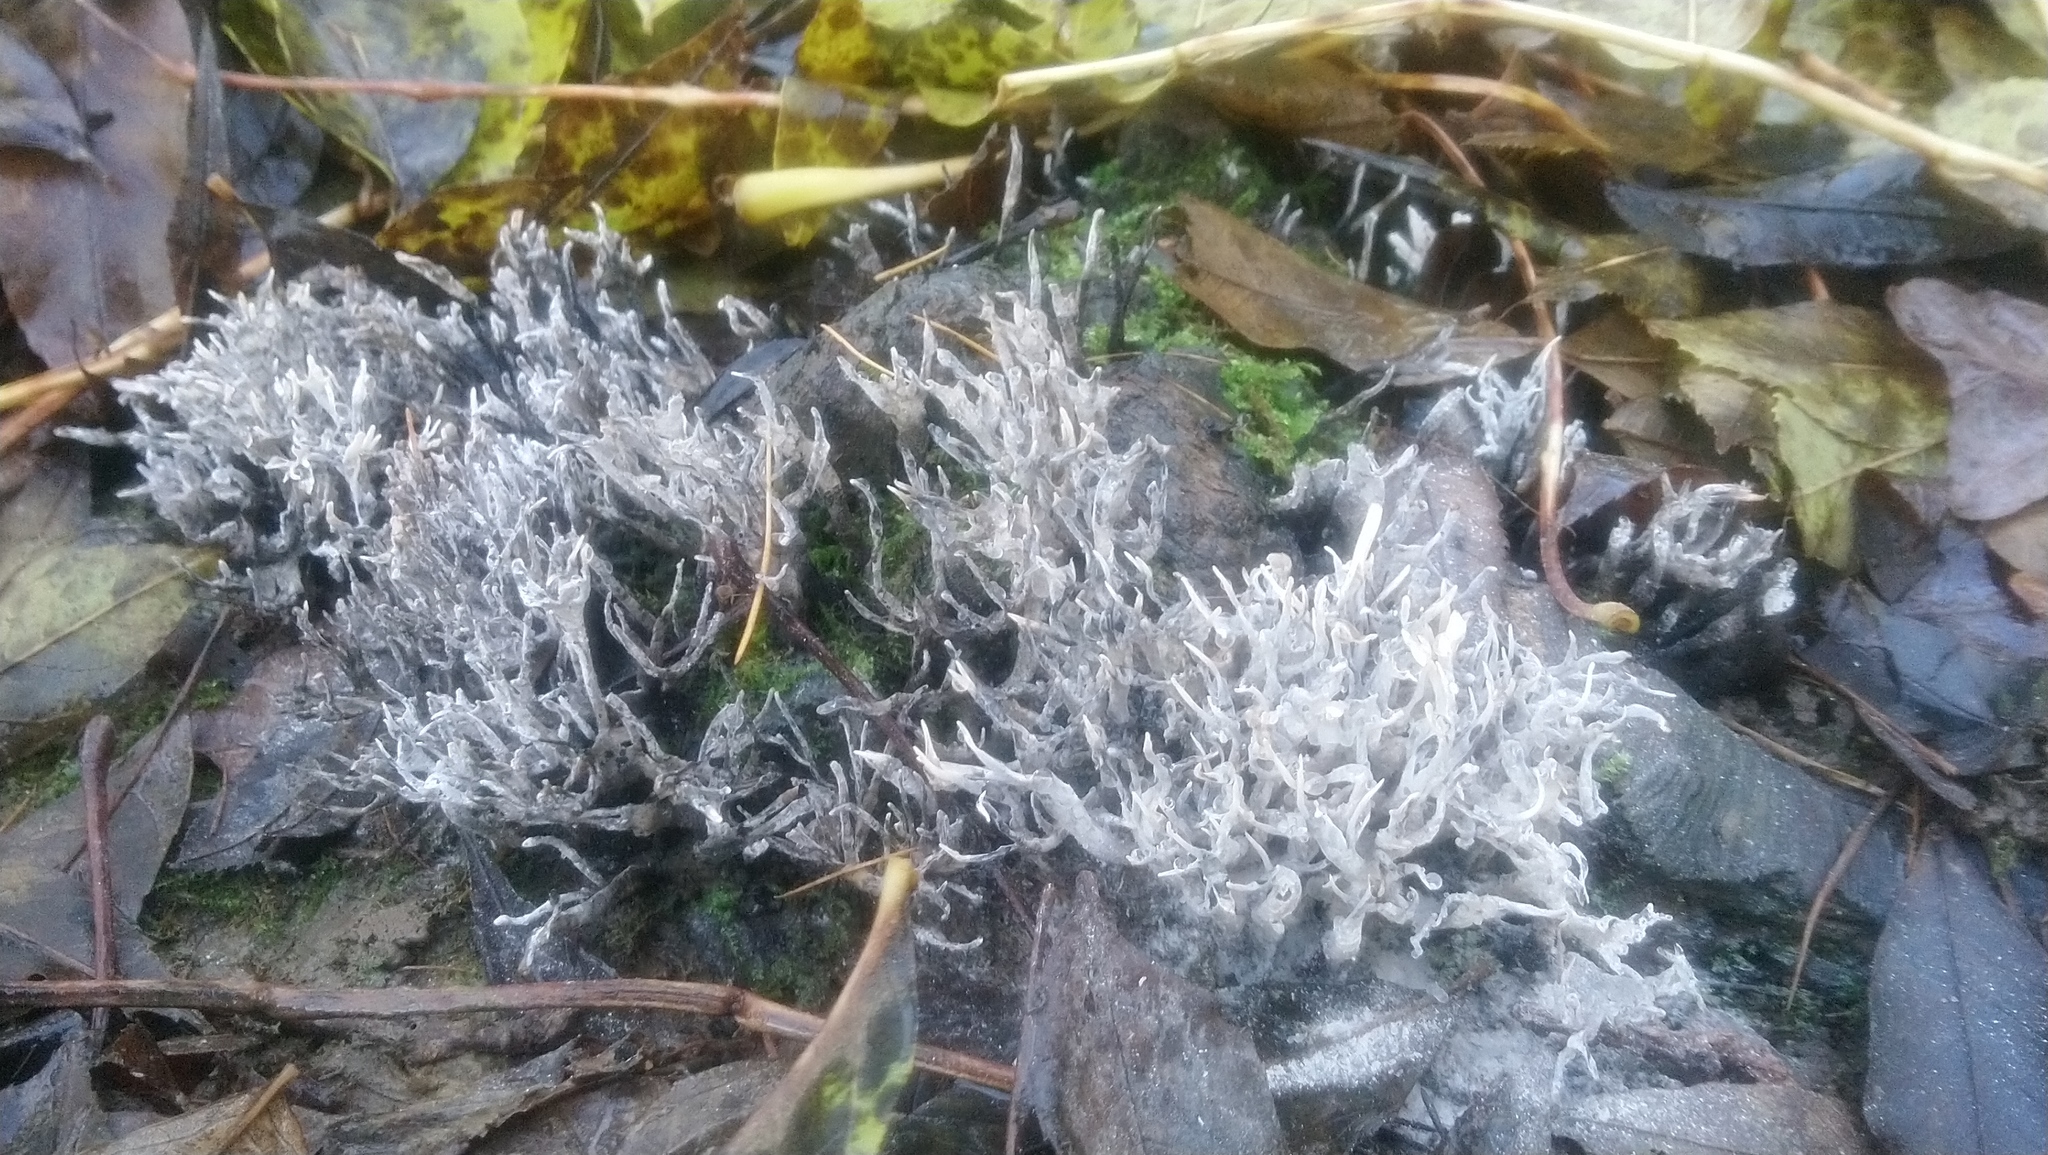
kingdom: Fungi
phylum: Ascomycota
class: Sordariomycetes
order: Xylariales
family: Xylariaceae
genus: Xylaria
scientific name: Xylaria hypoxylon
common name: Candle-snuff fungus
